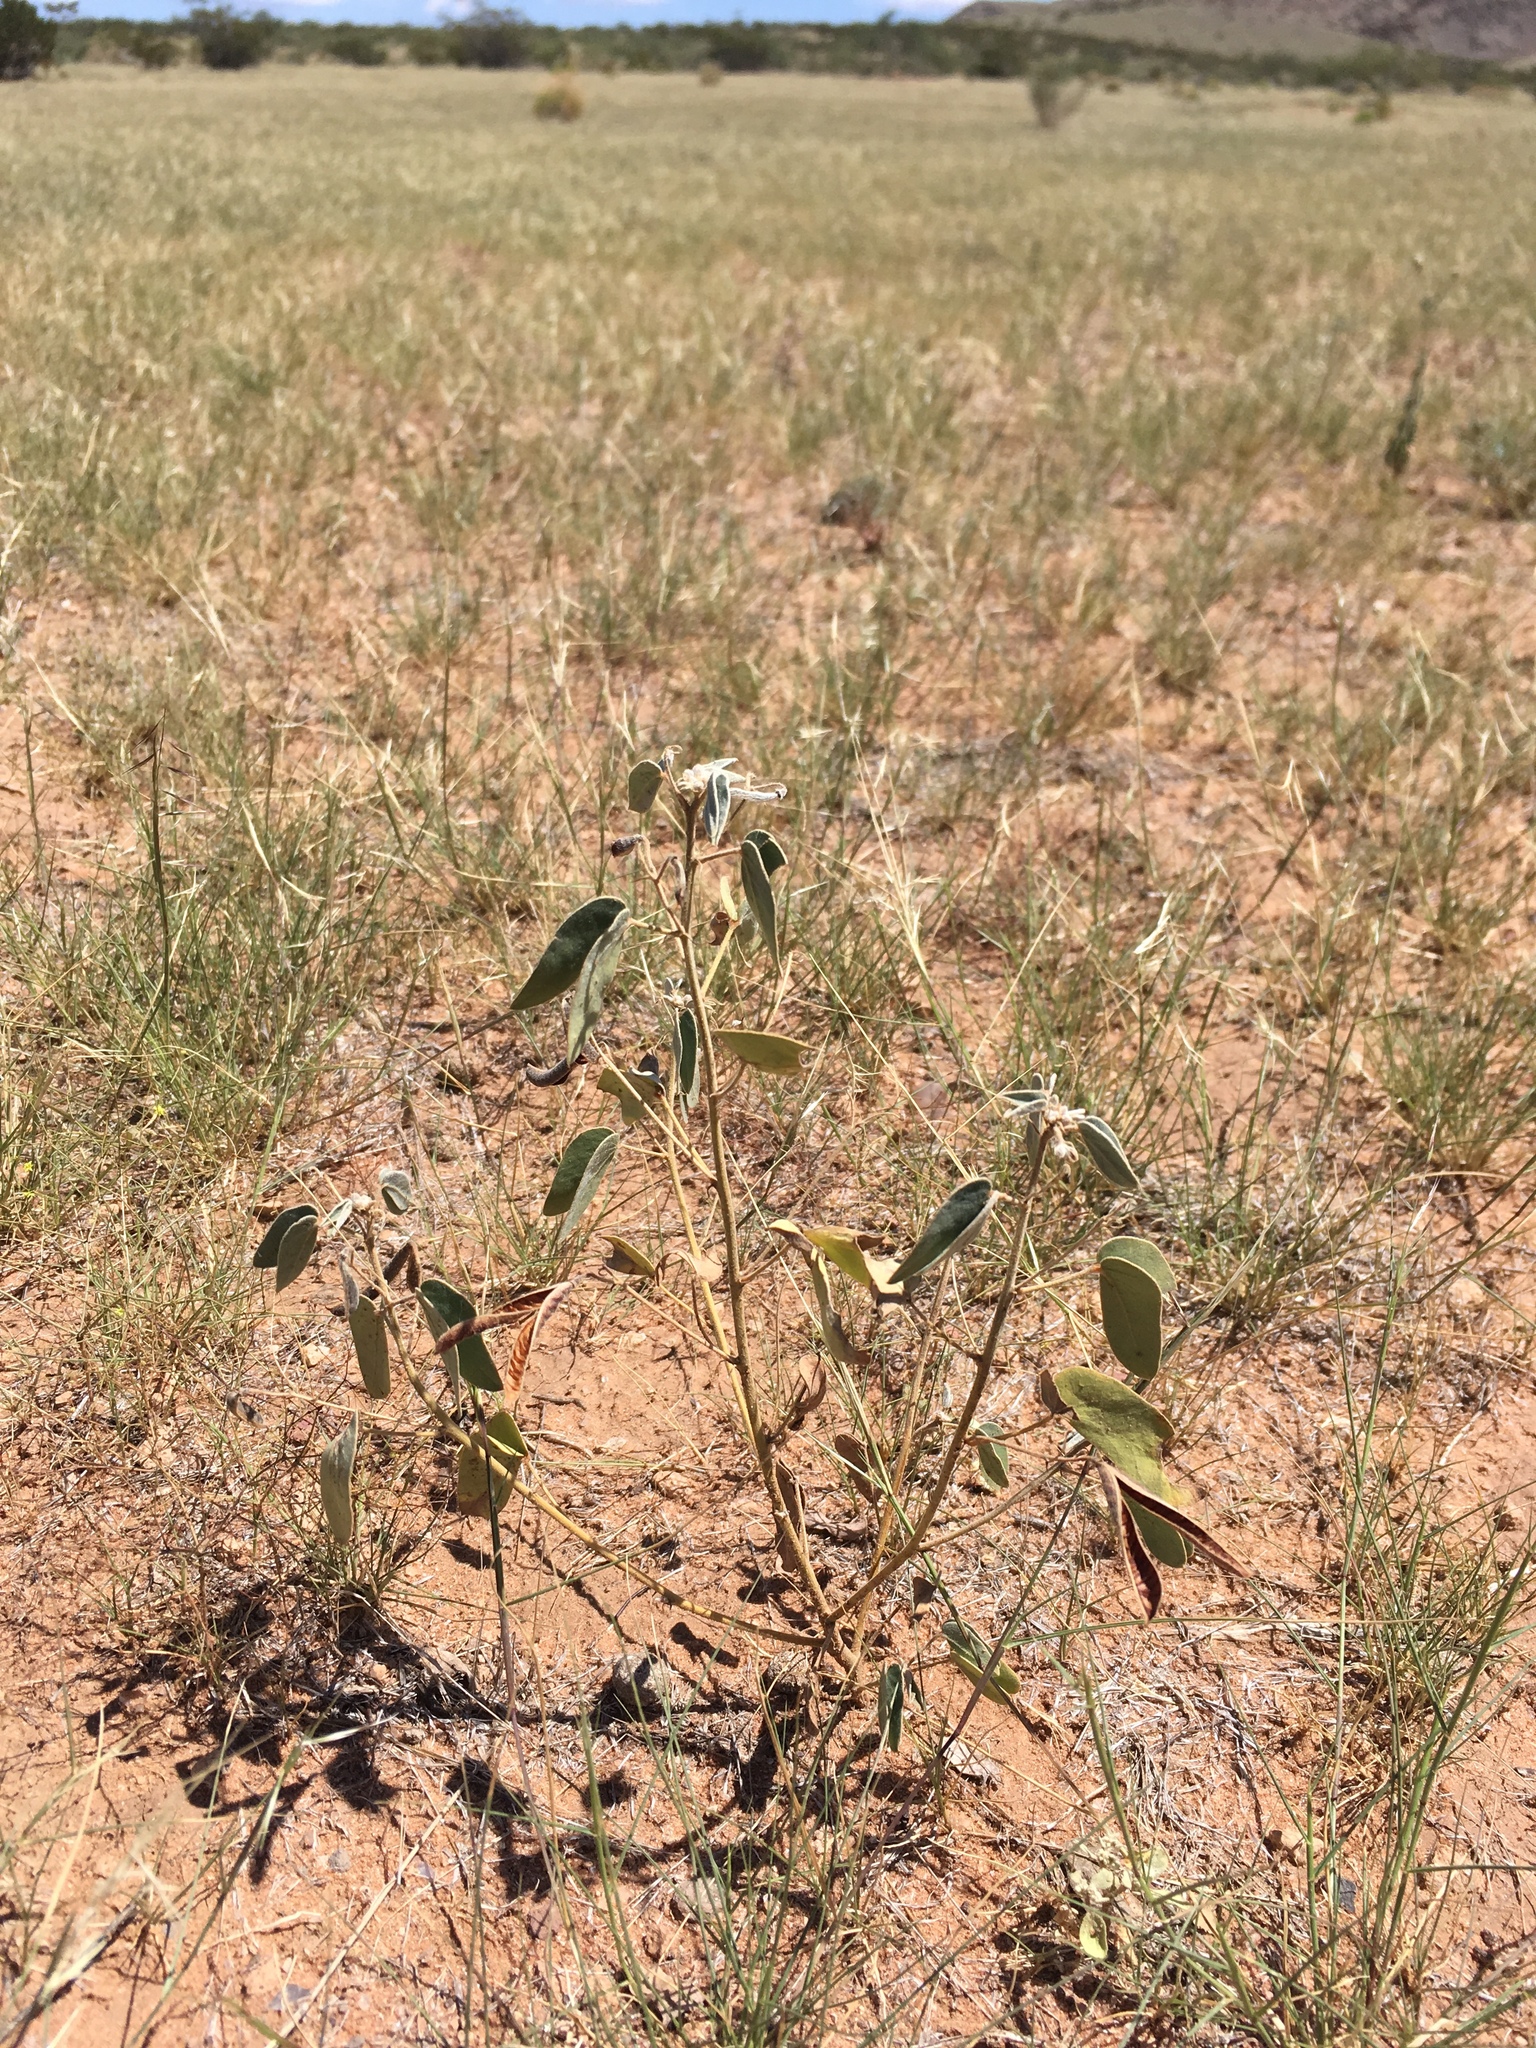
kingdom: Plantae
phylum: Tracheophyta
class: Magnoliopsida
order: Fabales
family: Fabaceae
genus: Senna
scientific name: Senna bauhinioides
